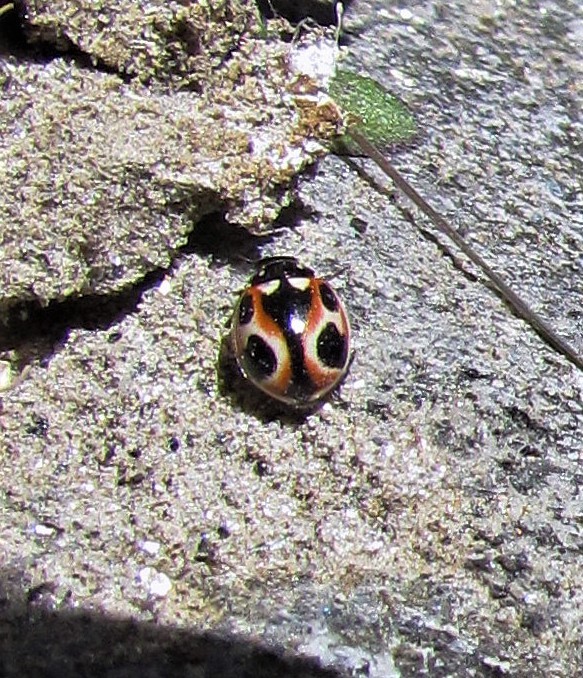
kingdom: Animalia
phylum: Arthropoda
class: Insecta
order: Coleoptera
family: Coccinellidae
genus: Cycloneda
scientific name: Cycloneda ancoralis
